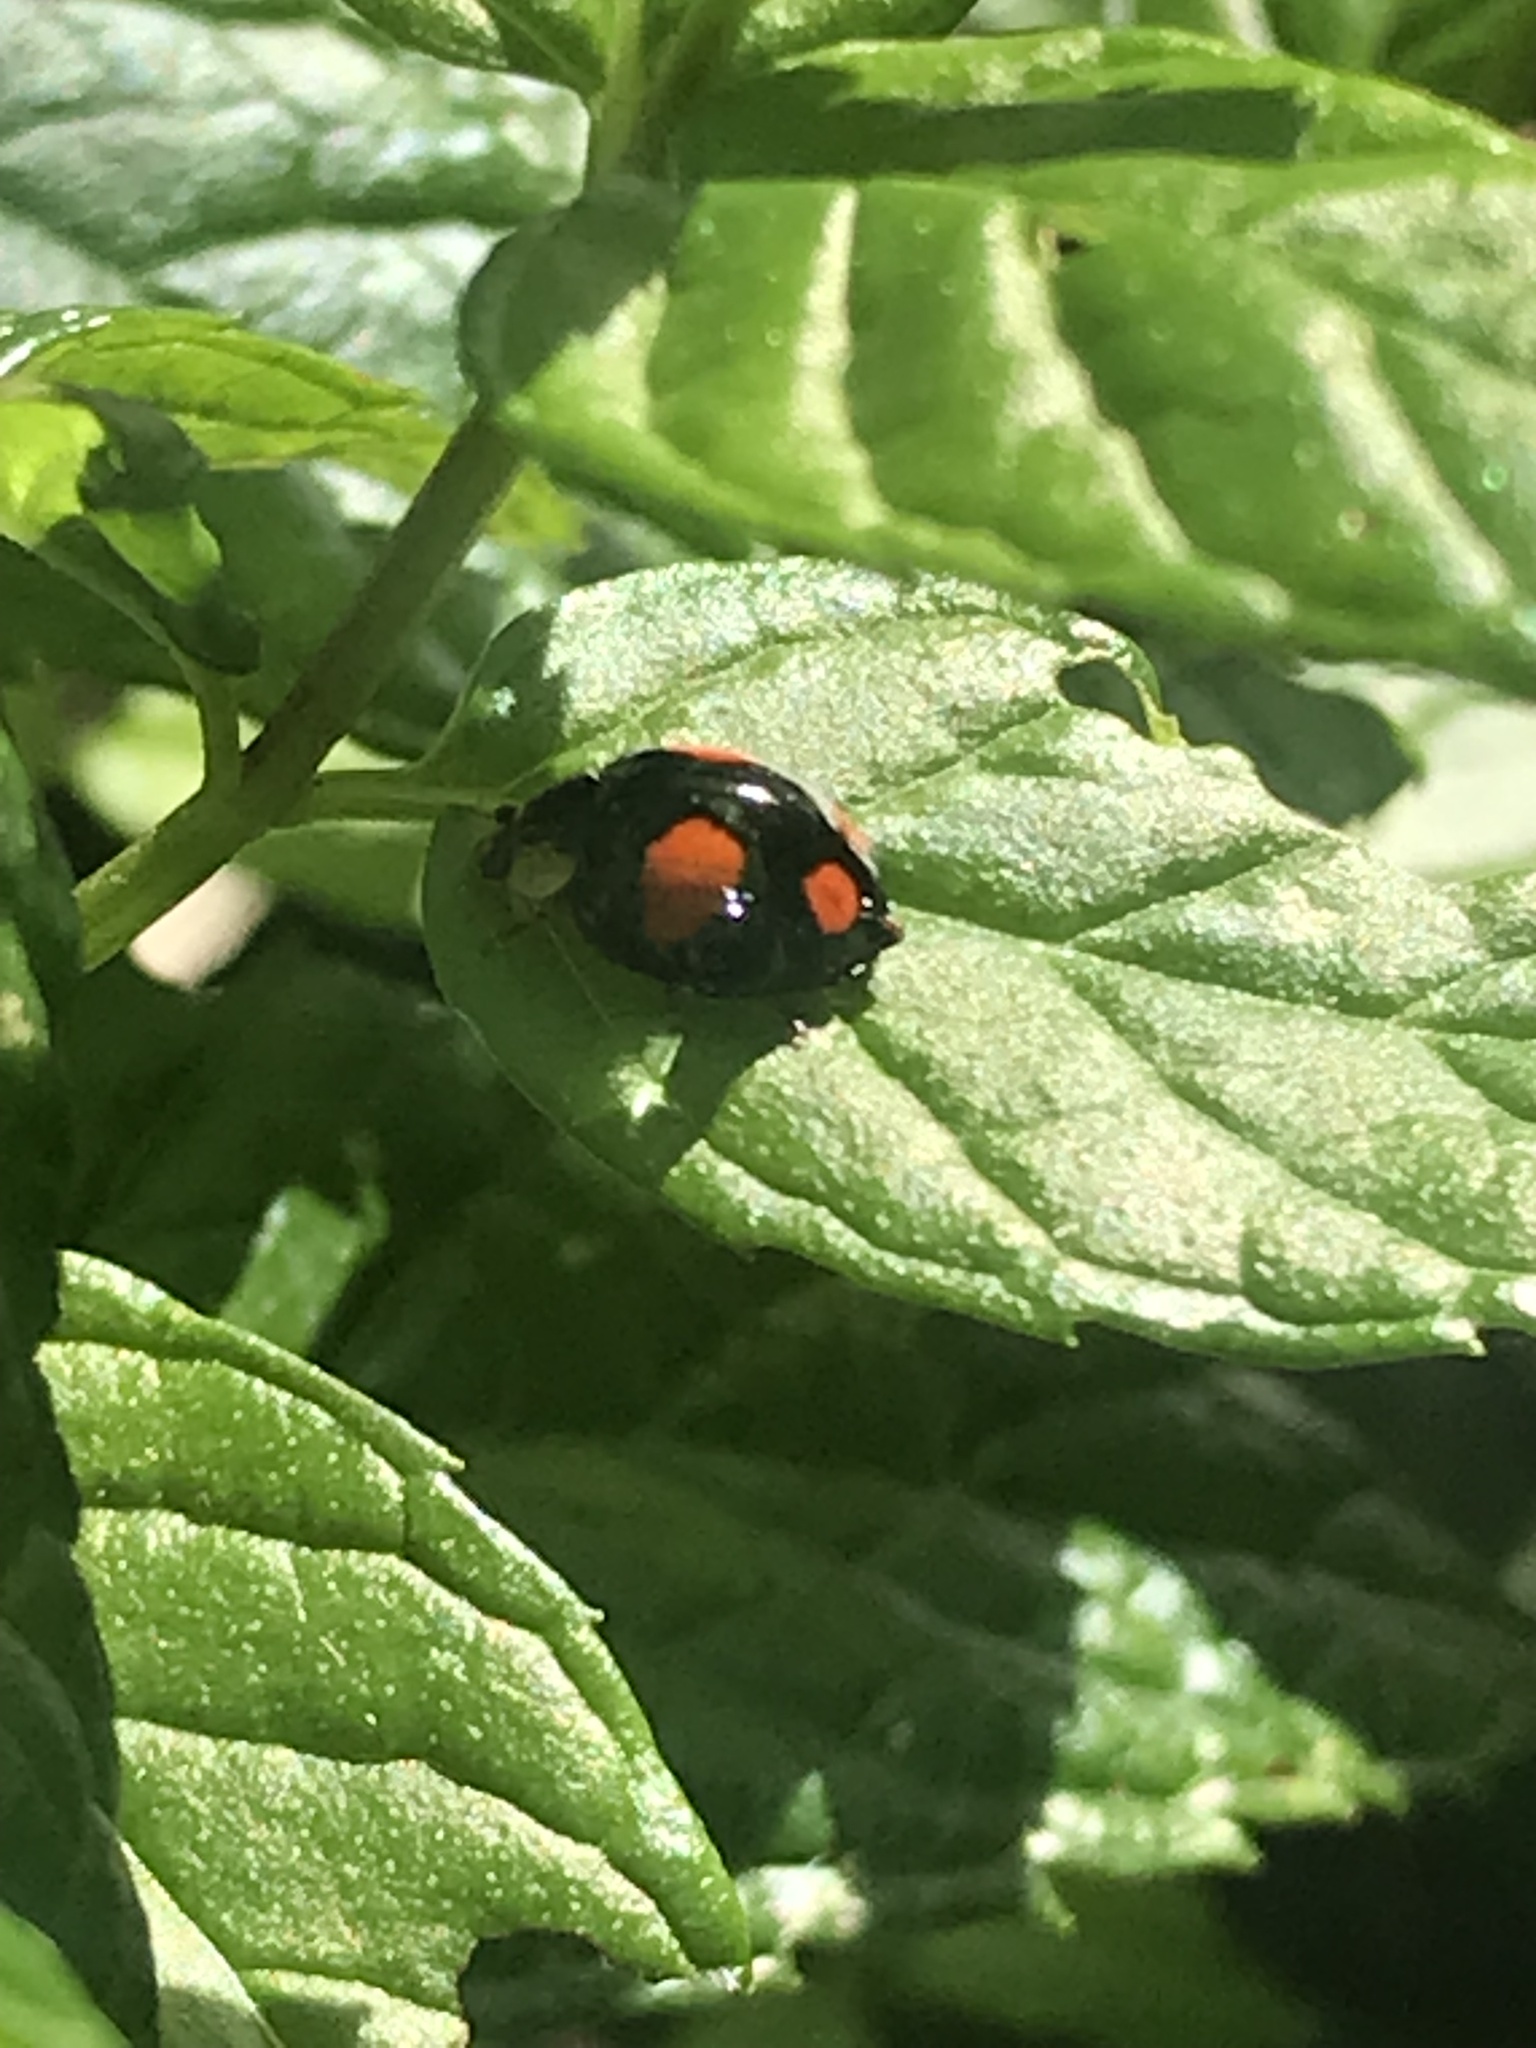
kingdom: Animalia
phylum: Arthropoda
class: Insecta
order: Coleoptera
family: Coccinellidae
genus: Harmonia
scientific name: Harmonia axyridis
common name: Harlequin ladybird
